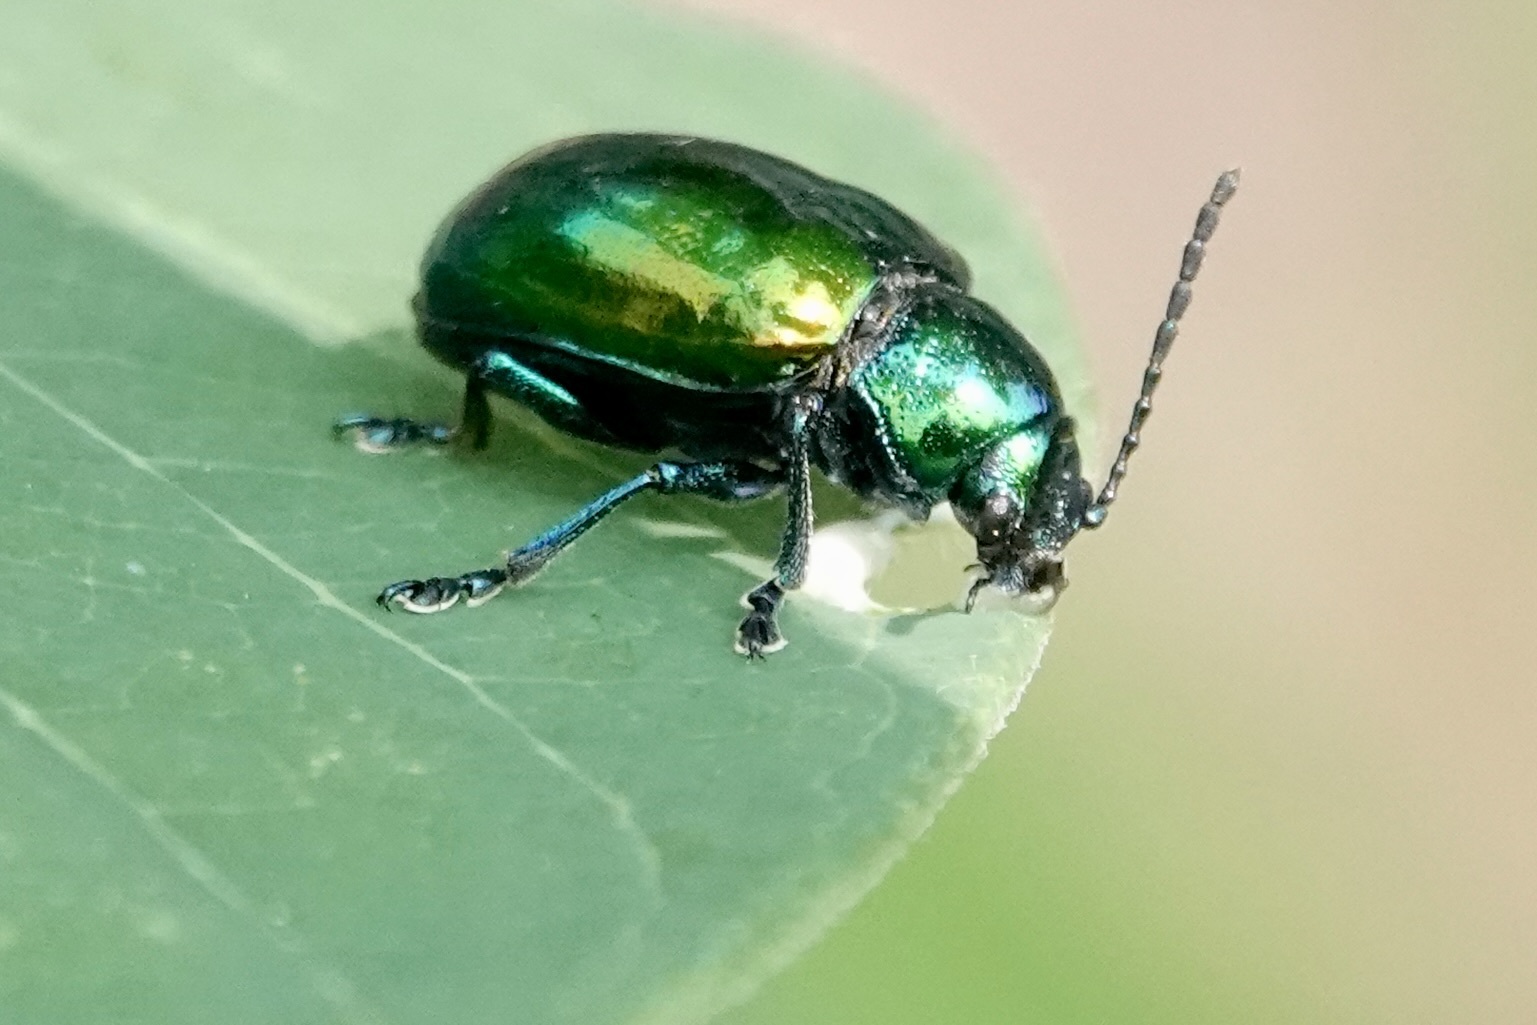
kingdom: Animalia
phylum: Arthropoda
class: Insecta
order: Coleoptera
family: Chrysomelidae
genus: Chrysochus
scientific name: Chrysochus auratus
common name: Dogbane leaf beetle
